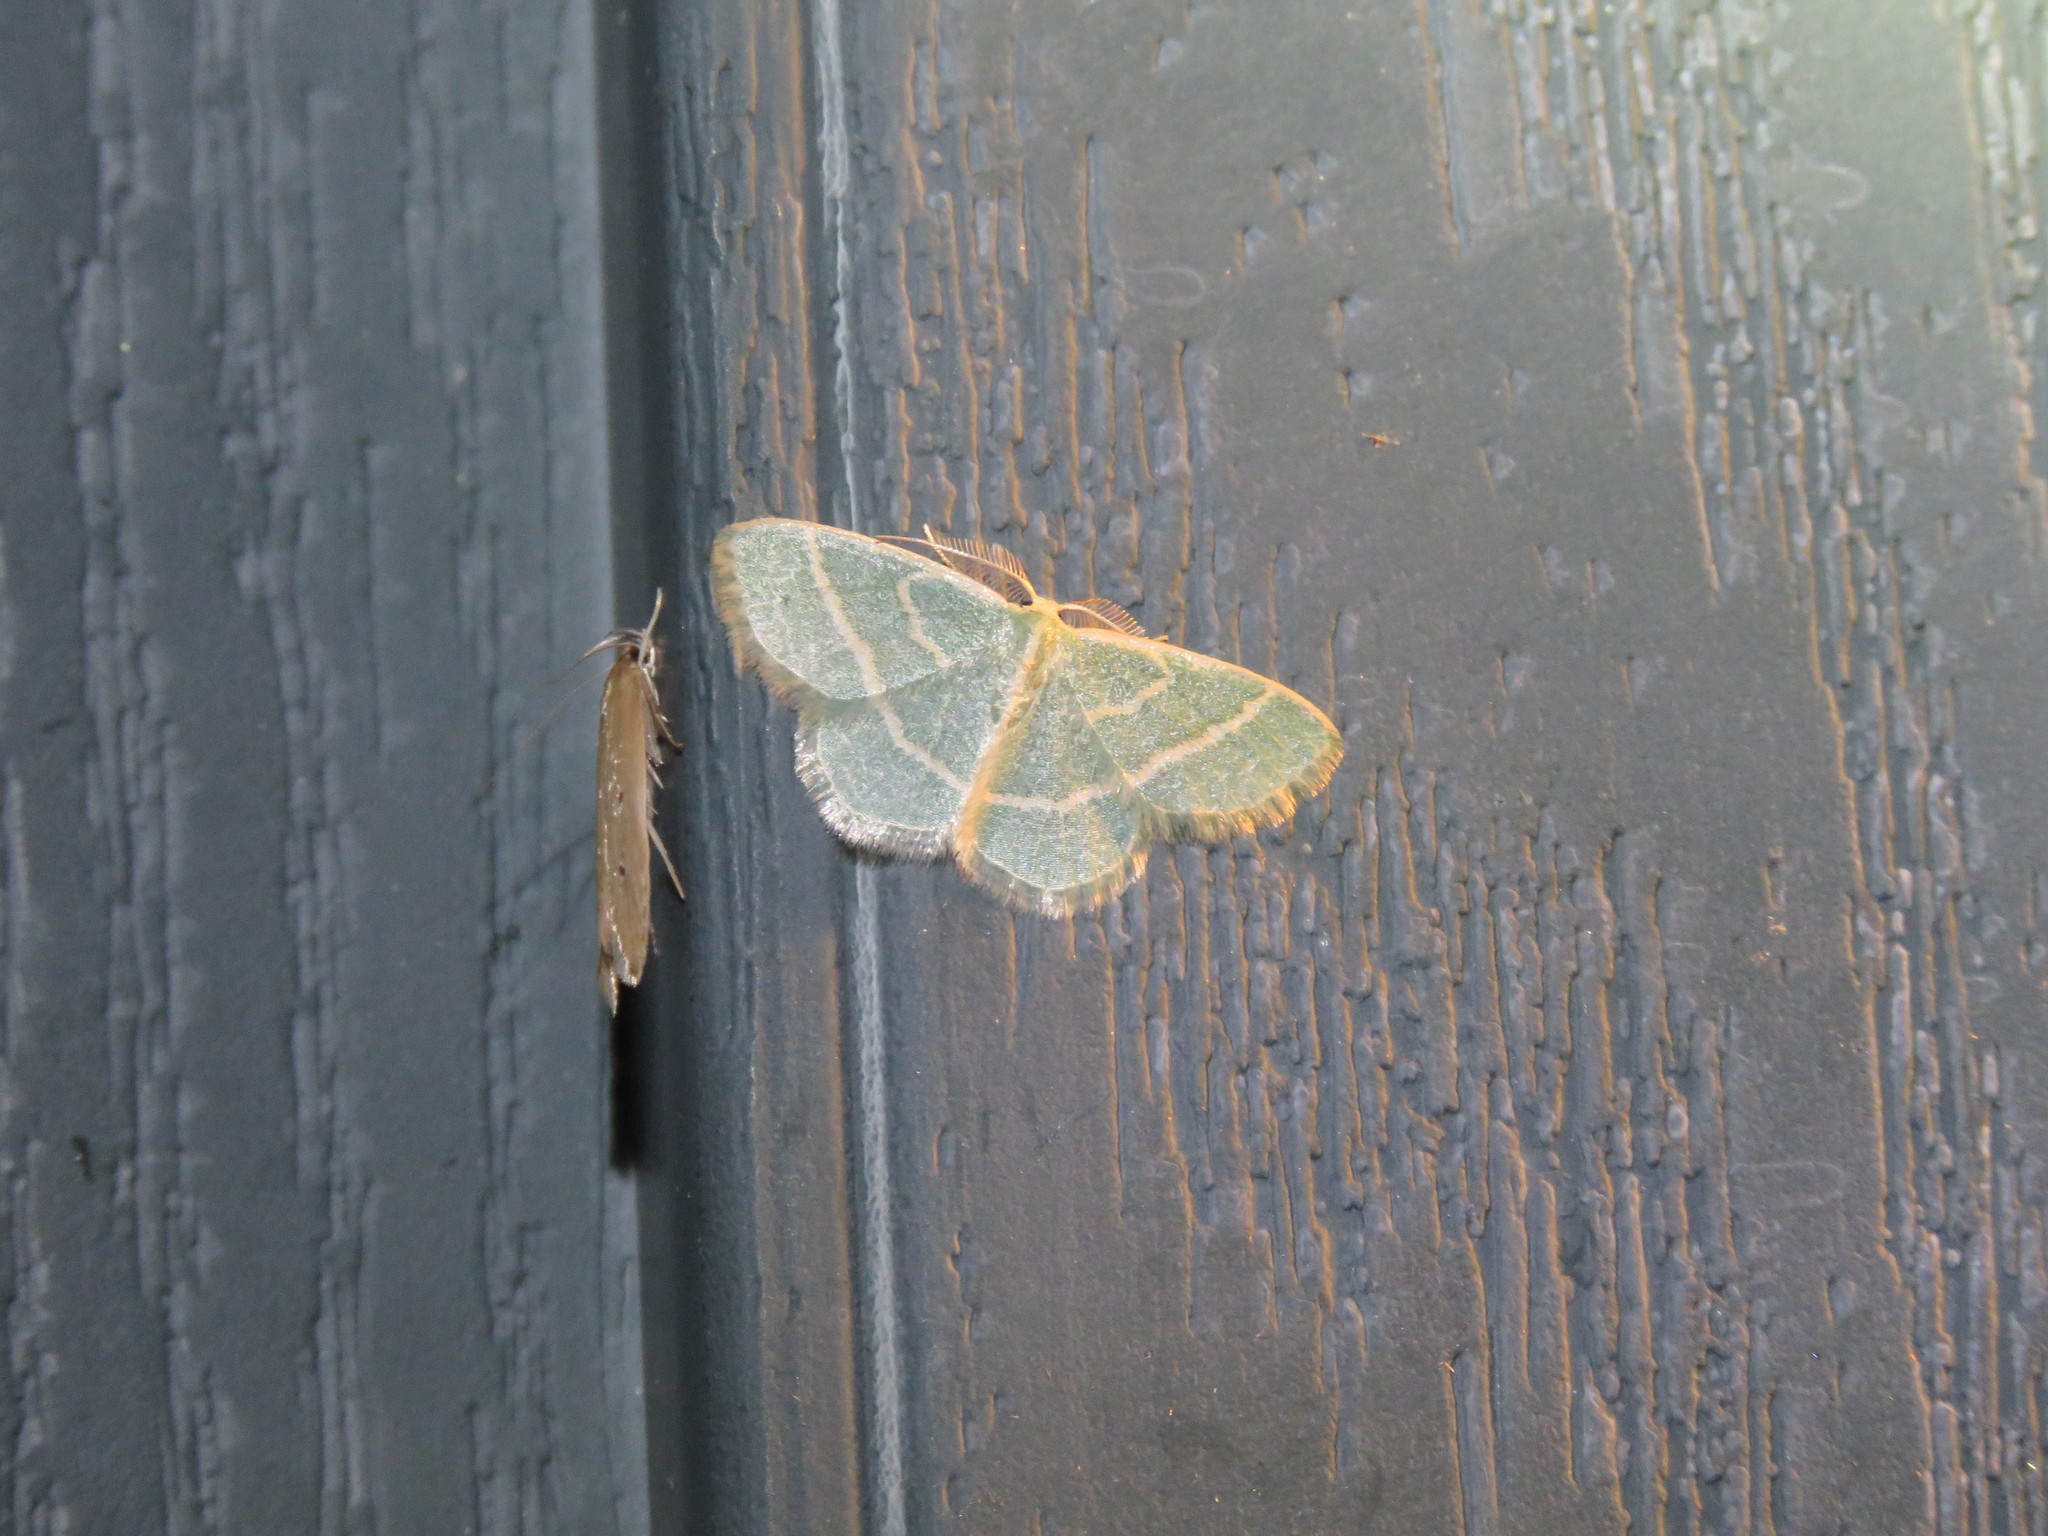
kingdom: Animalia
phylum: Arthropoda
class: Insecta
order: Lepidoptera
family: Geometridae
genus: Chlorochlamys
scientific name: Chlorochlamys chloroleucaria
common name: Blackberry looper
